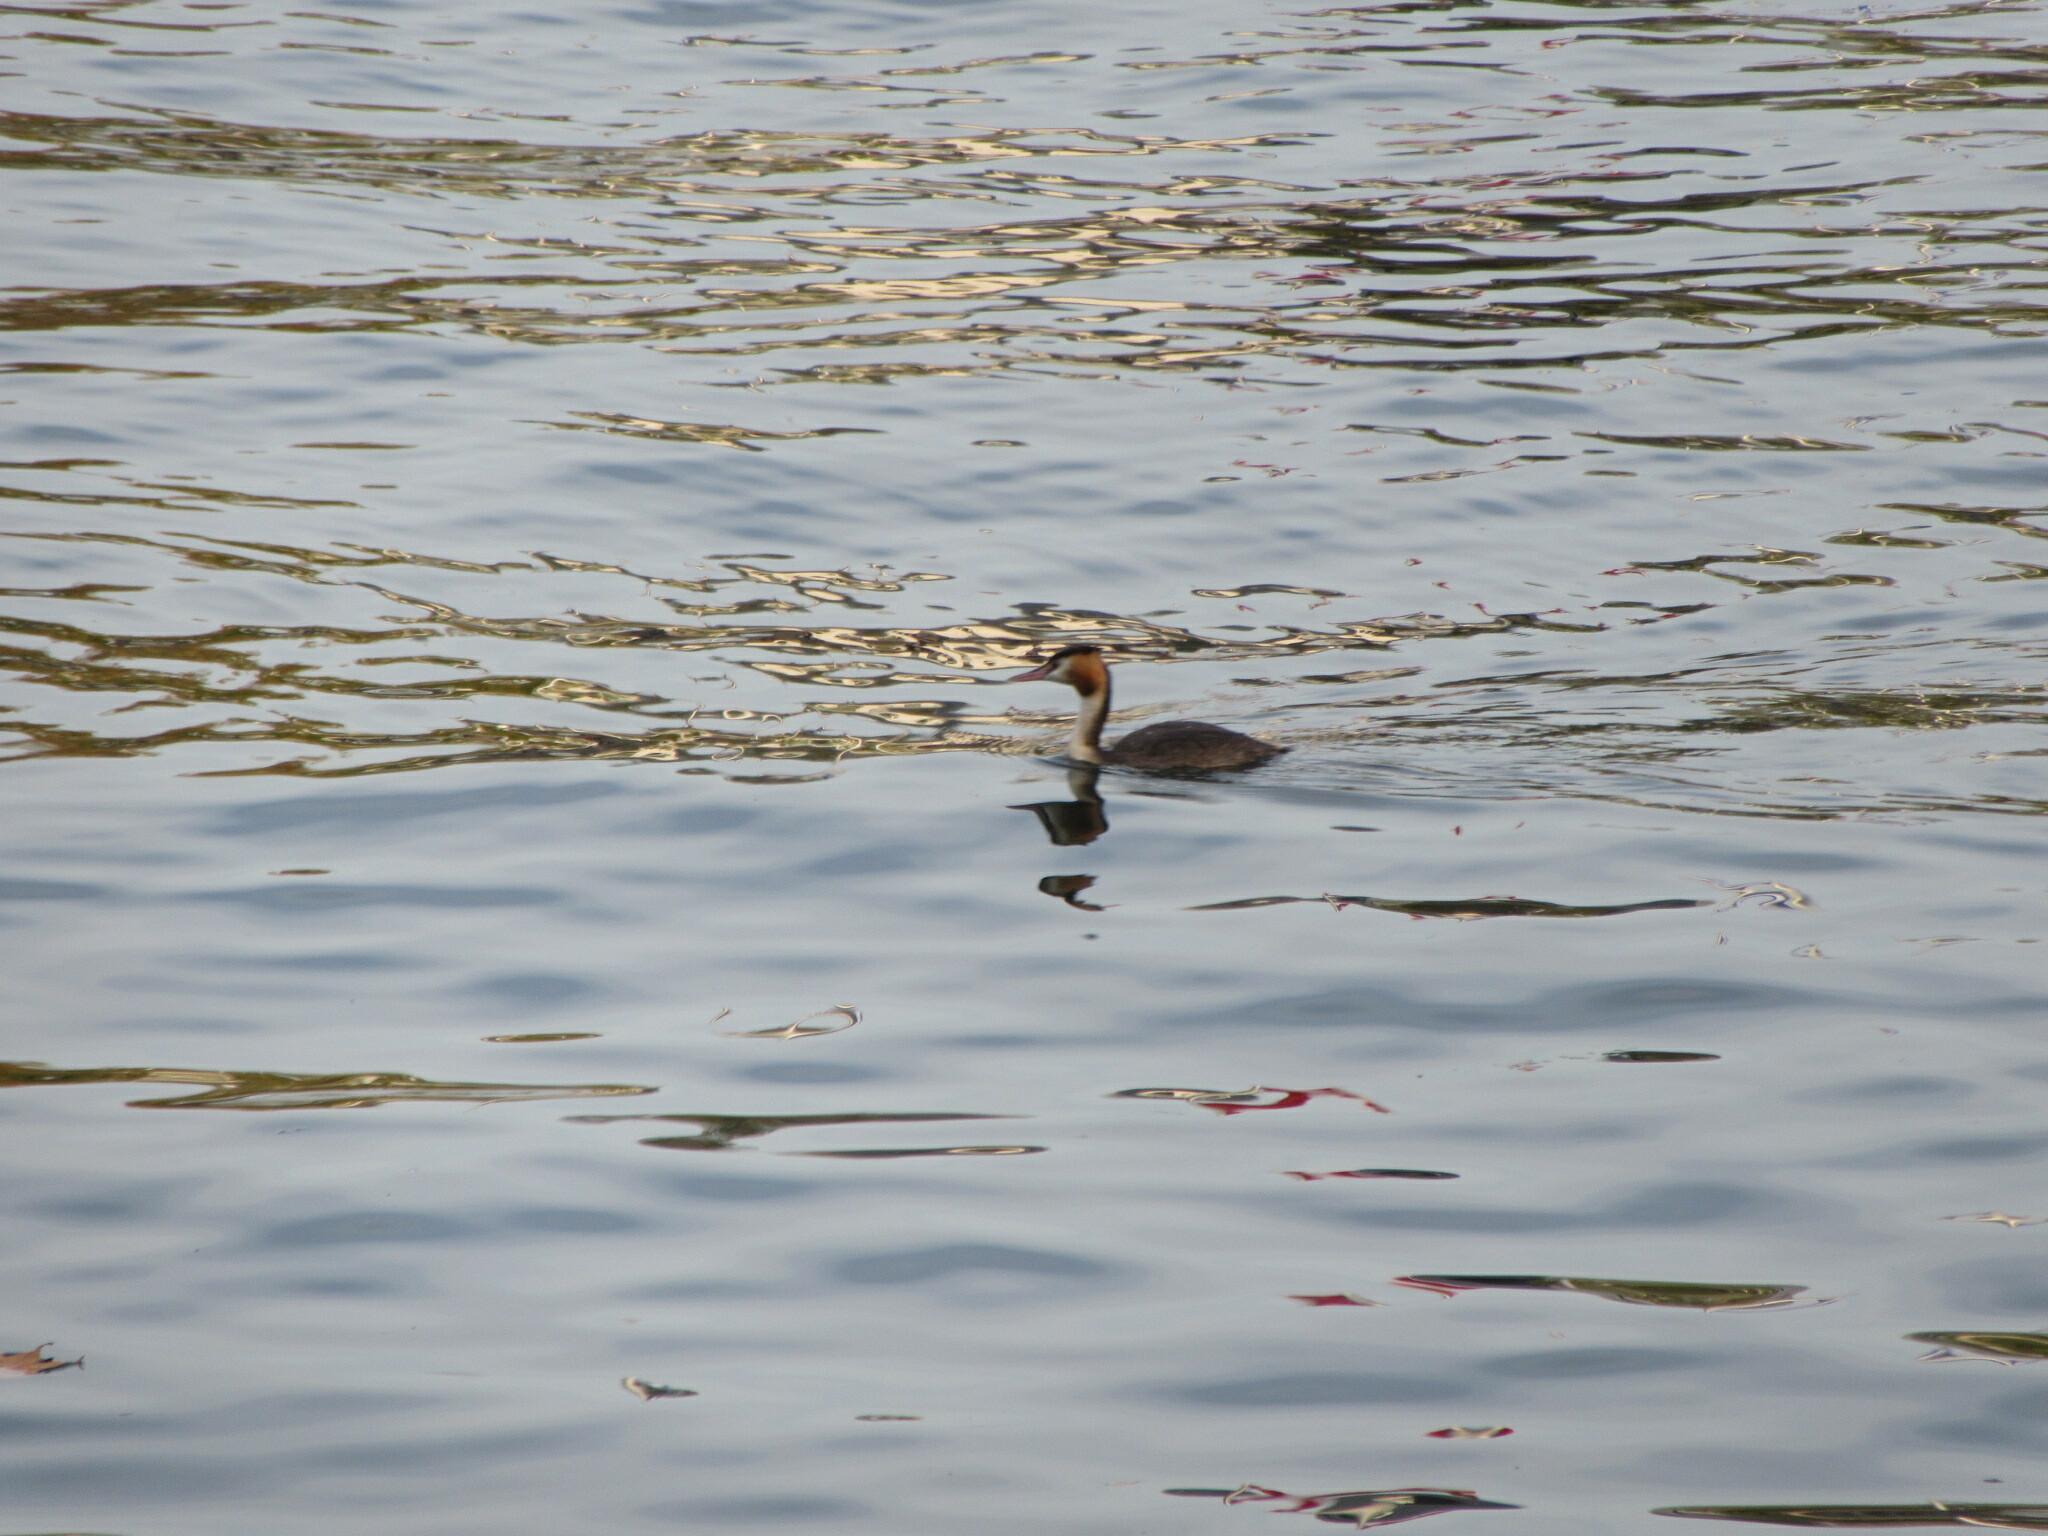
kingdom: Animalia
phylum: Chordata
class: Aves
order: Podicipediformes
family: Podicipedidae
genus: Podiceps
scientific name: Podiceps cristatus
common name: Great crested grebe
